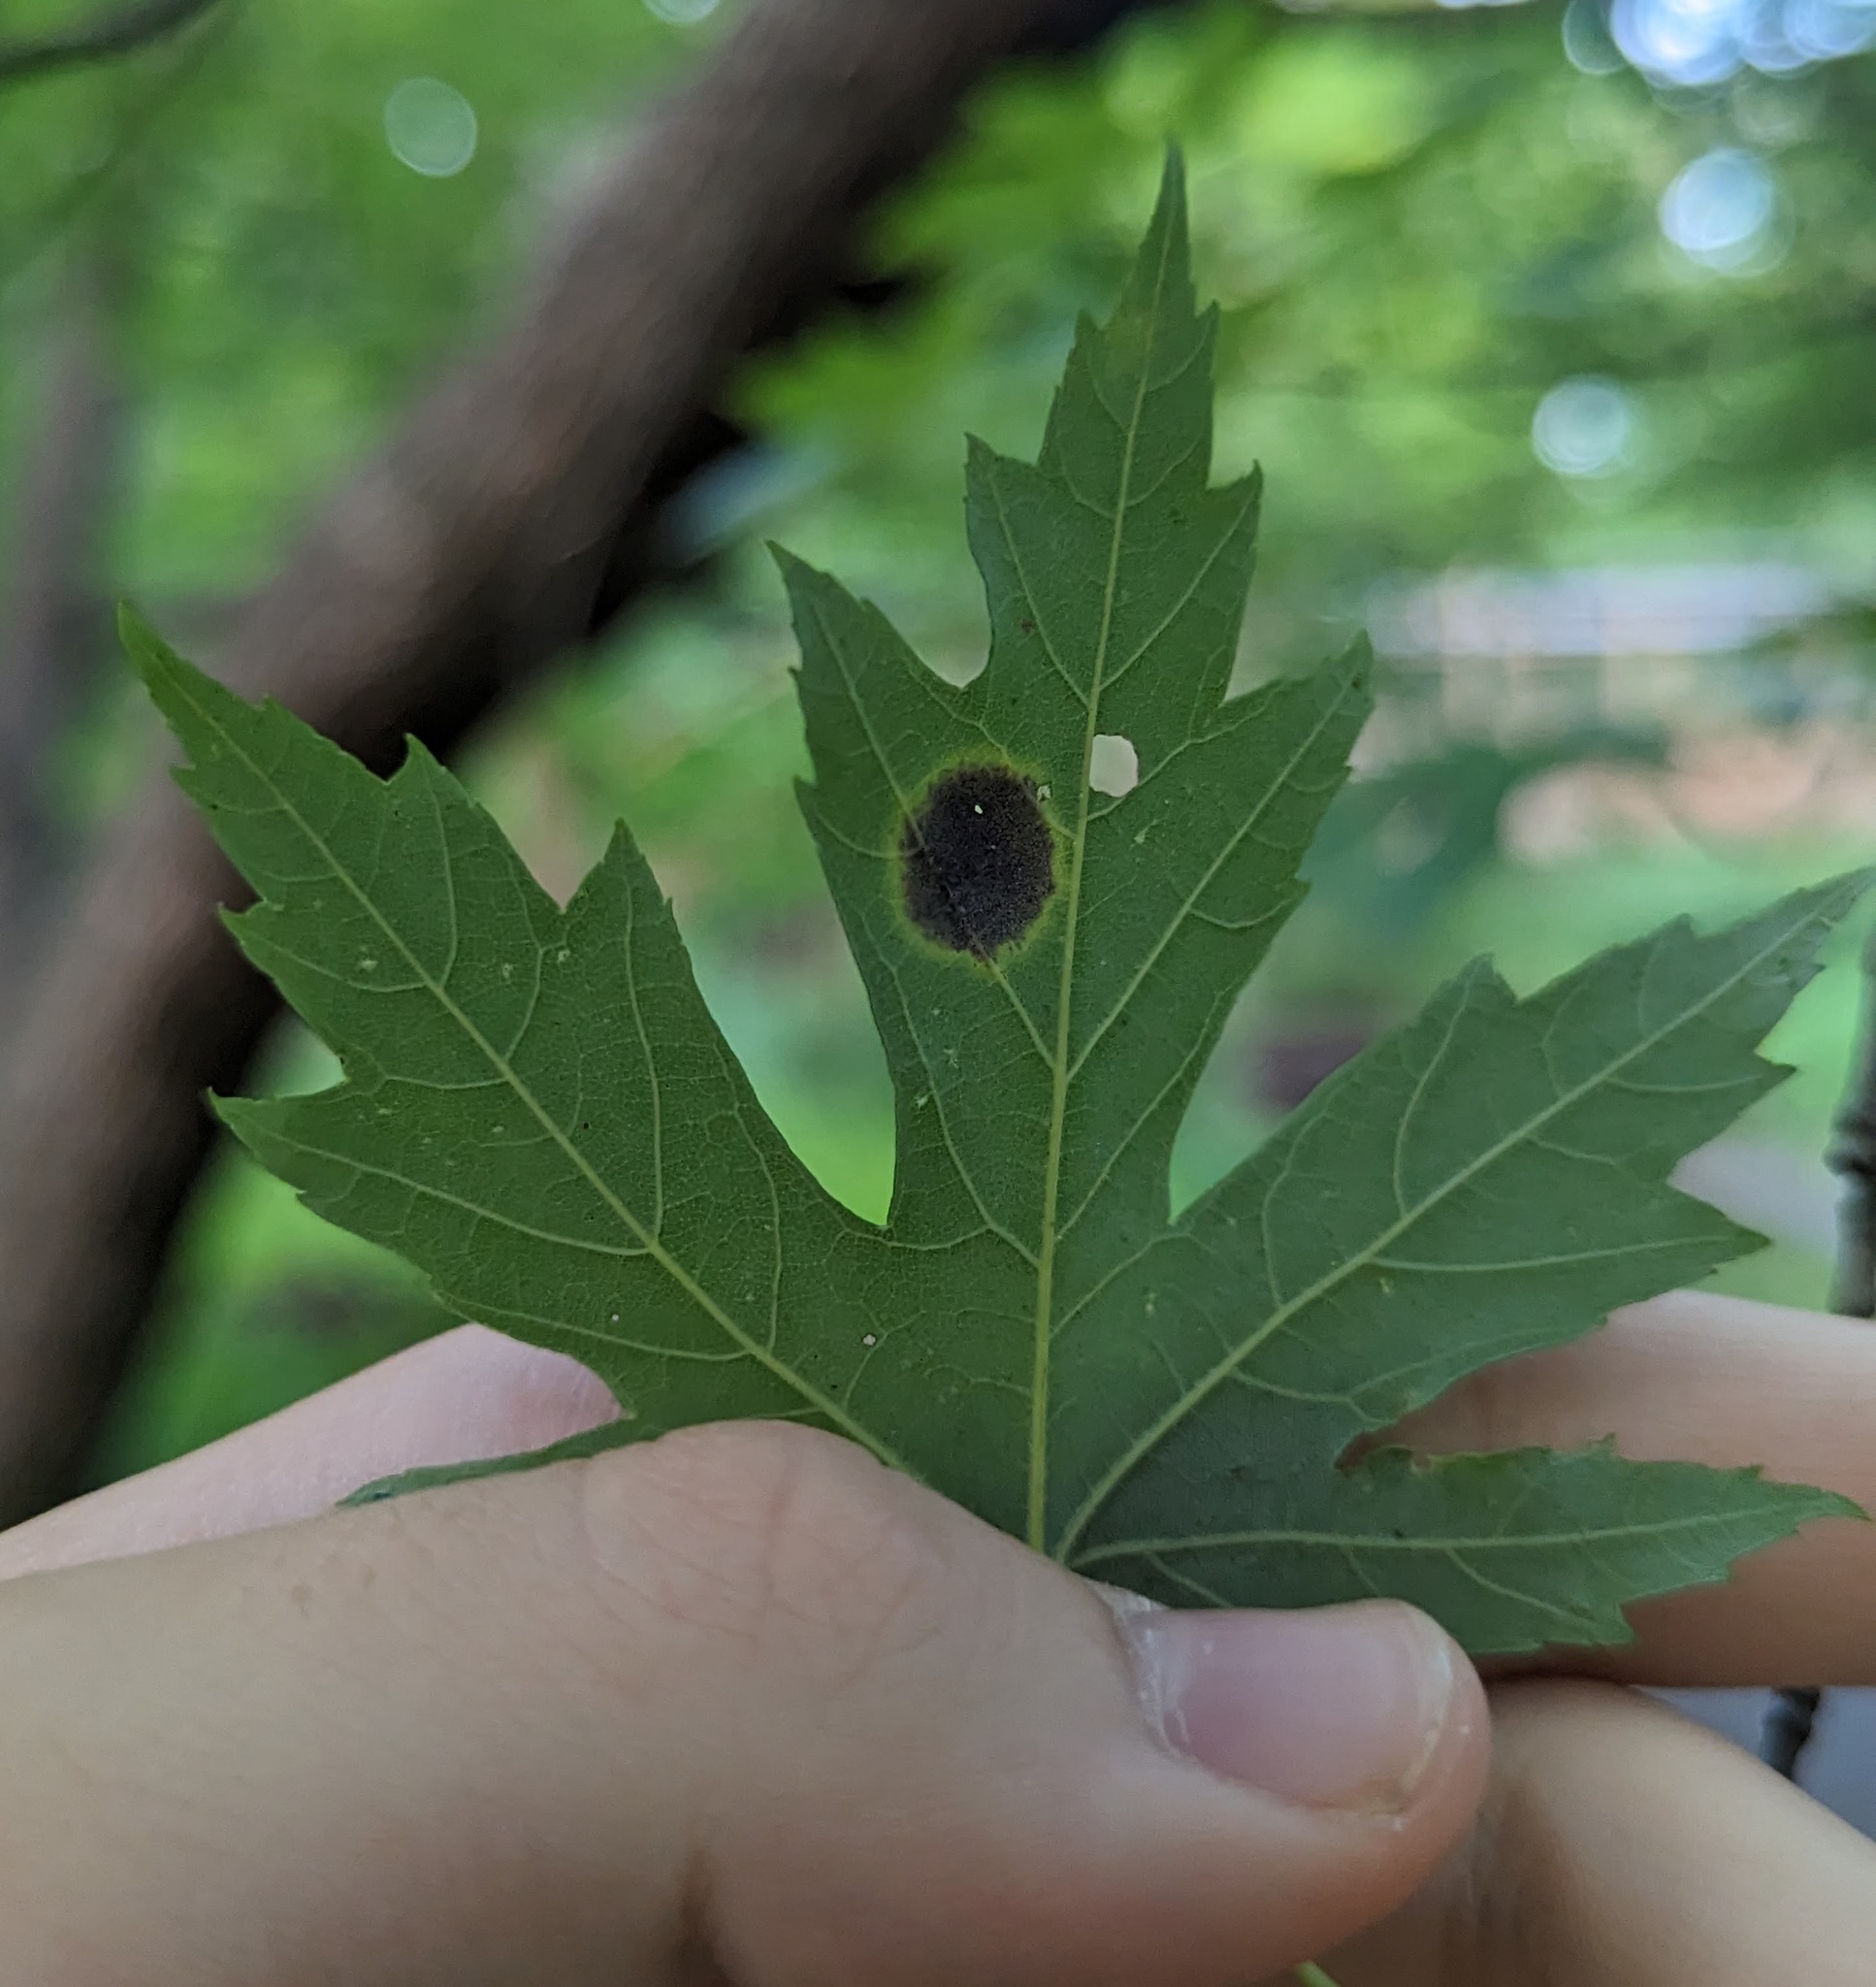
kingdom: Plantae
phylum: Tracheophyta
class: Magnoliopsida
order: Sapindales
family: Sapindaceae
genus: Acer
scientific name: Acer saccharinum
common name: Silver maple
